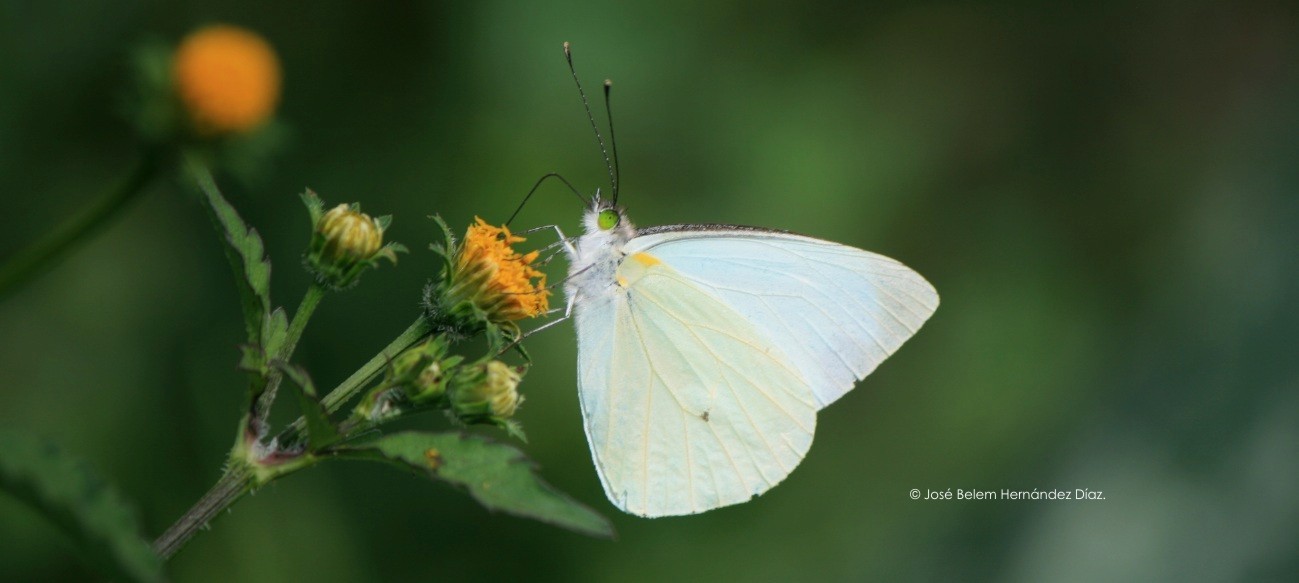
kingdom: Animalia
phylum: Arthropoda
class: Insecta
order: Lepidoptera
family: Pieridae
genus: Leptophobia
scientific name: Leptophobia aripa
